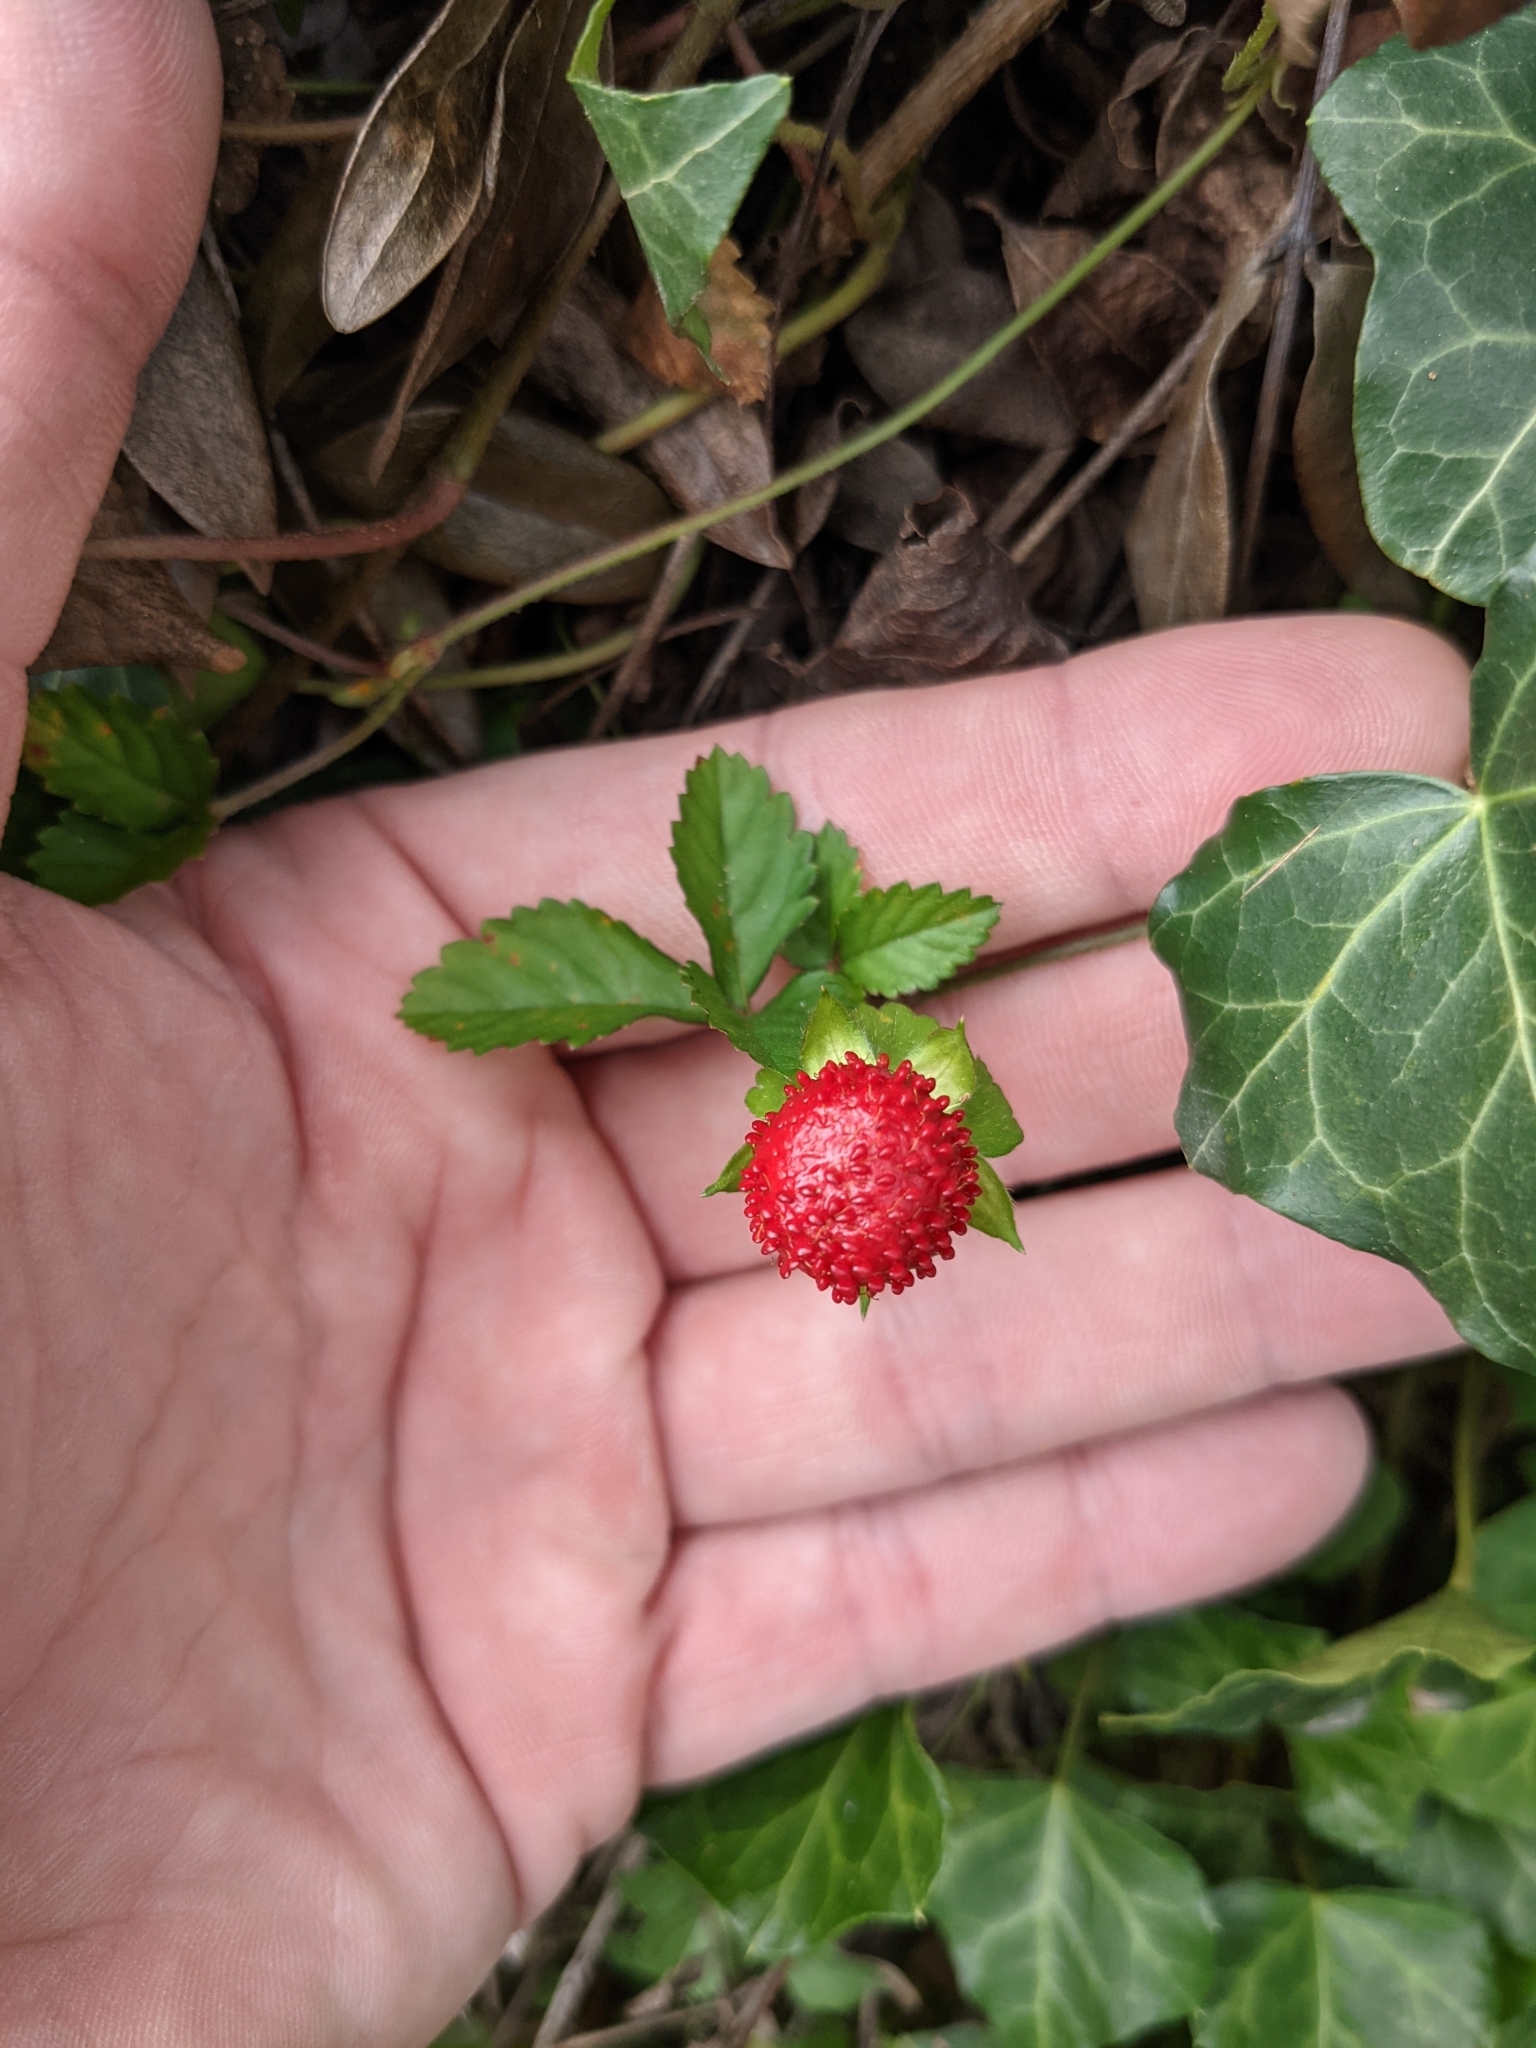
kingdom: Plantae
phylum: Tracheophyta
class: Magnoliopsida
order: Rosales
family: Rosaceae
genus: Potentilla
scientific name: Potentilla indica
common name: Yellow-flowered strawberry
